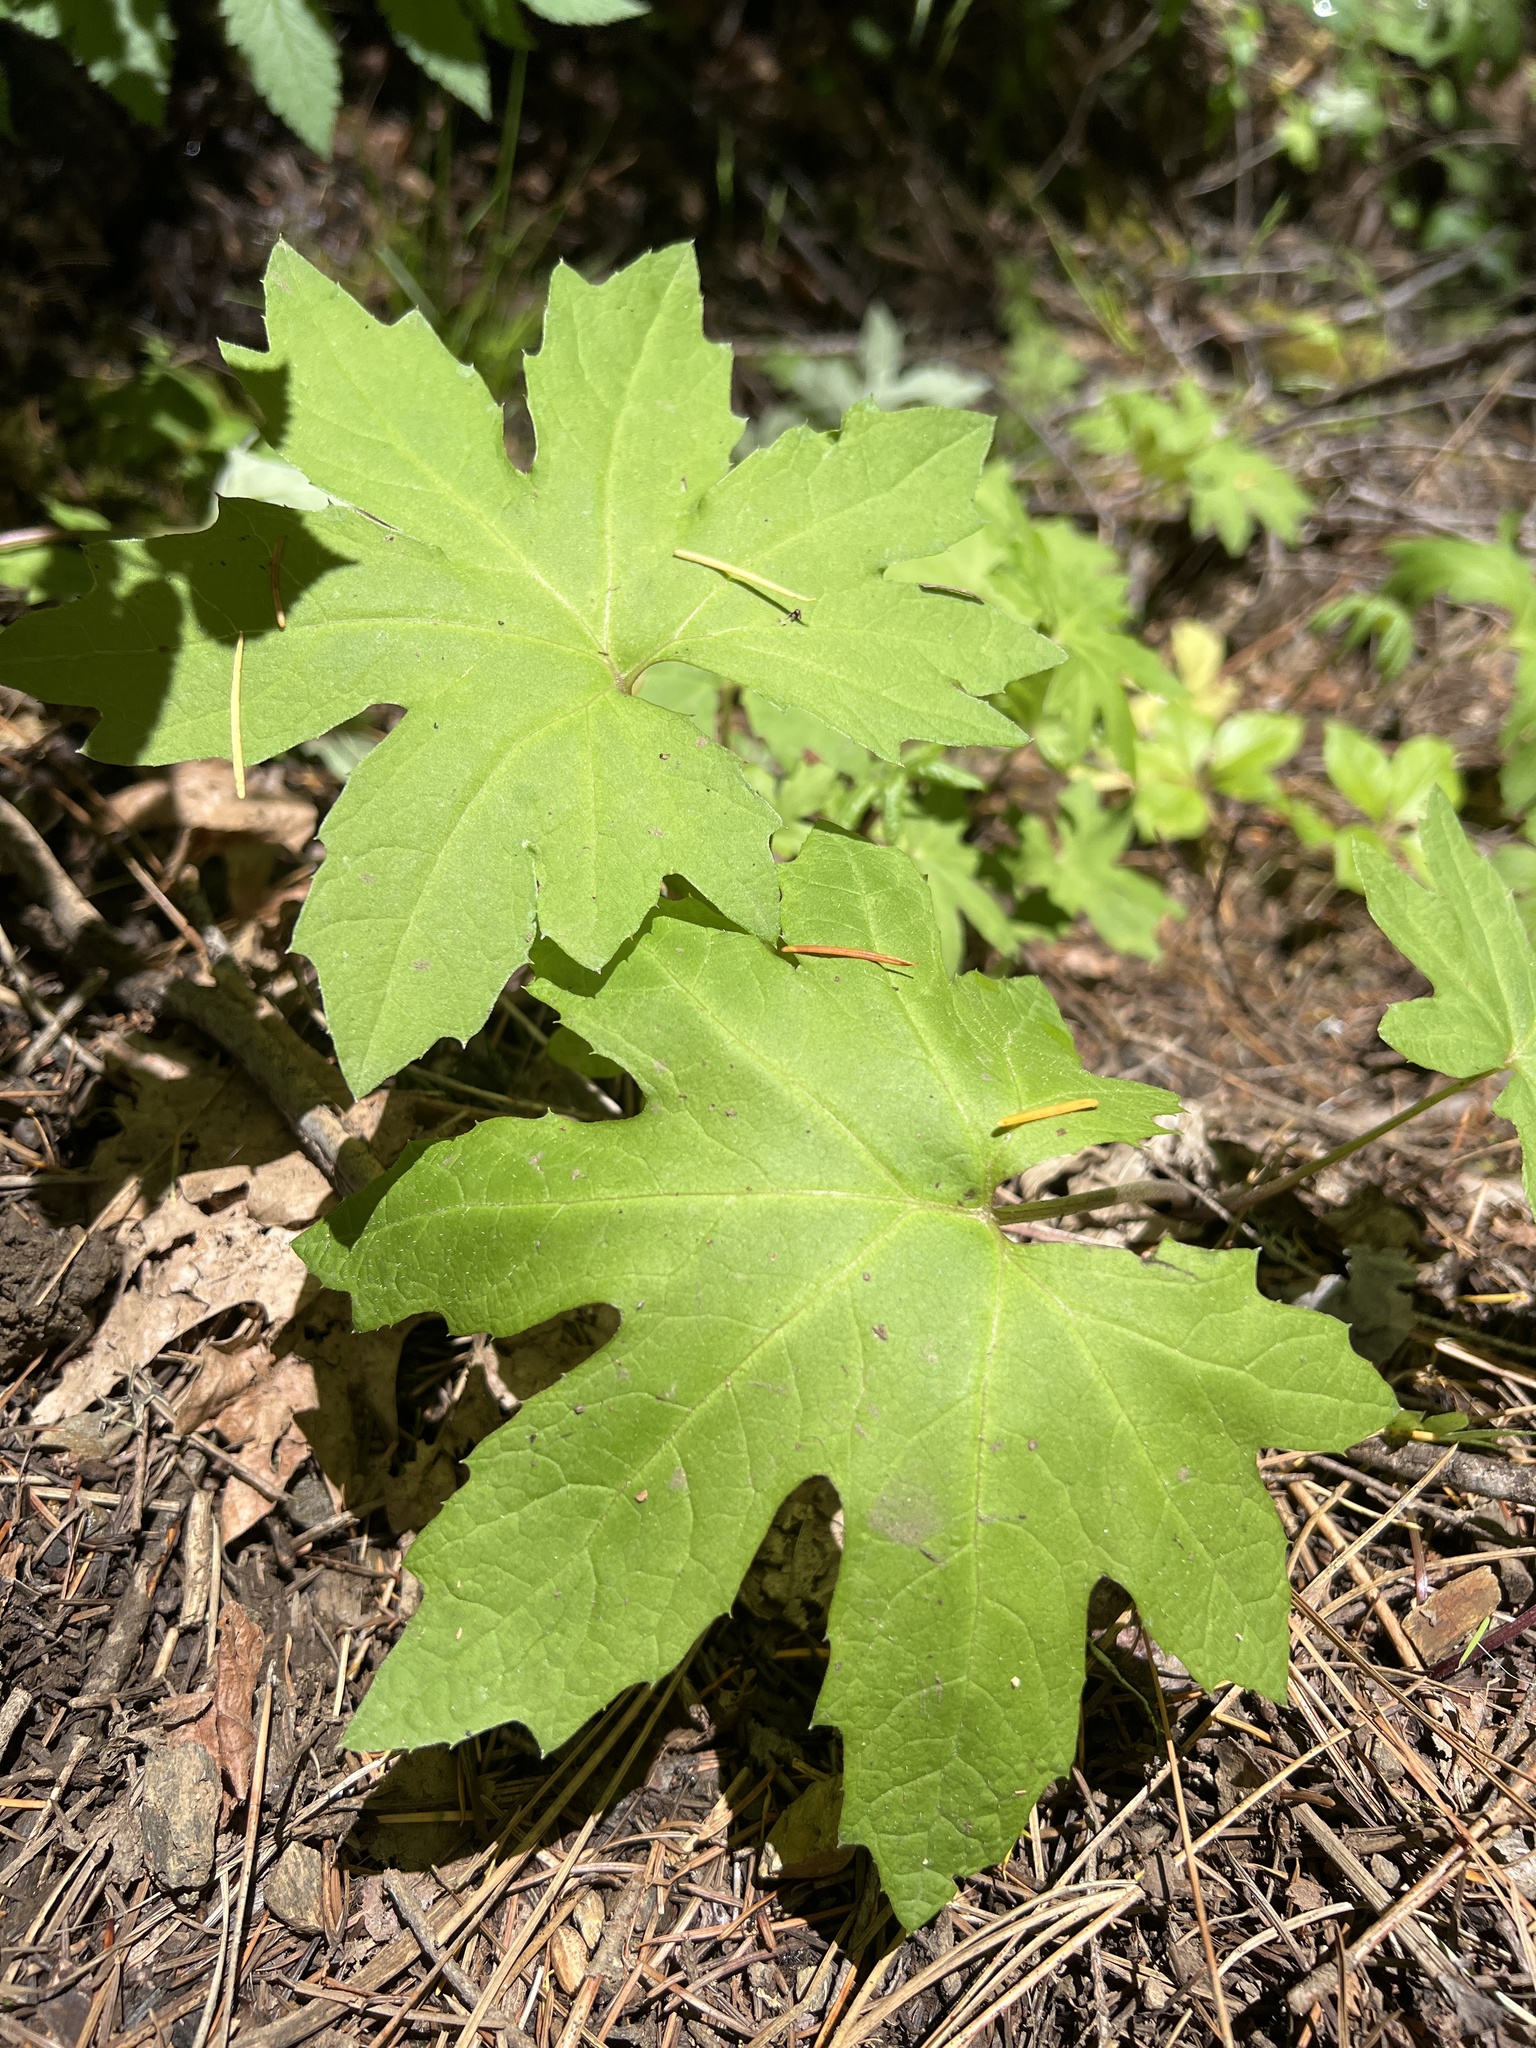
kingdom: Plantae
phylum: Tracheophyta
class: Magnoliopsida
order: Asterales
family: Asteraceae
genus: Petasites
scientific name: Petasites frigidus
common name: Arctic butterbur
